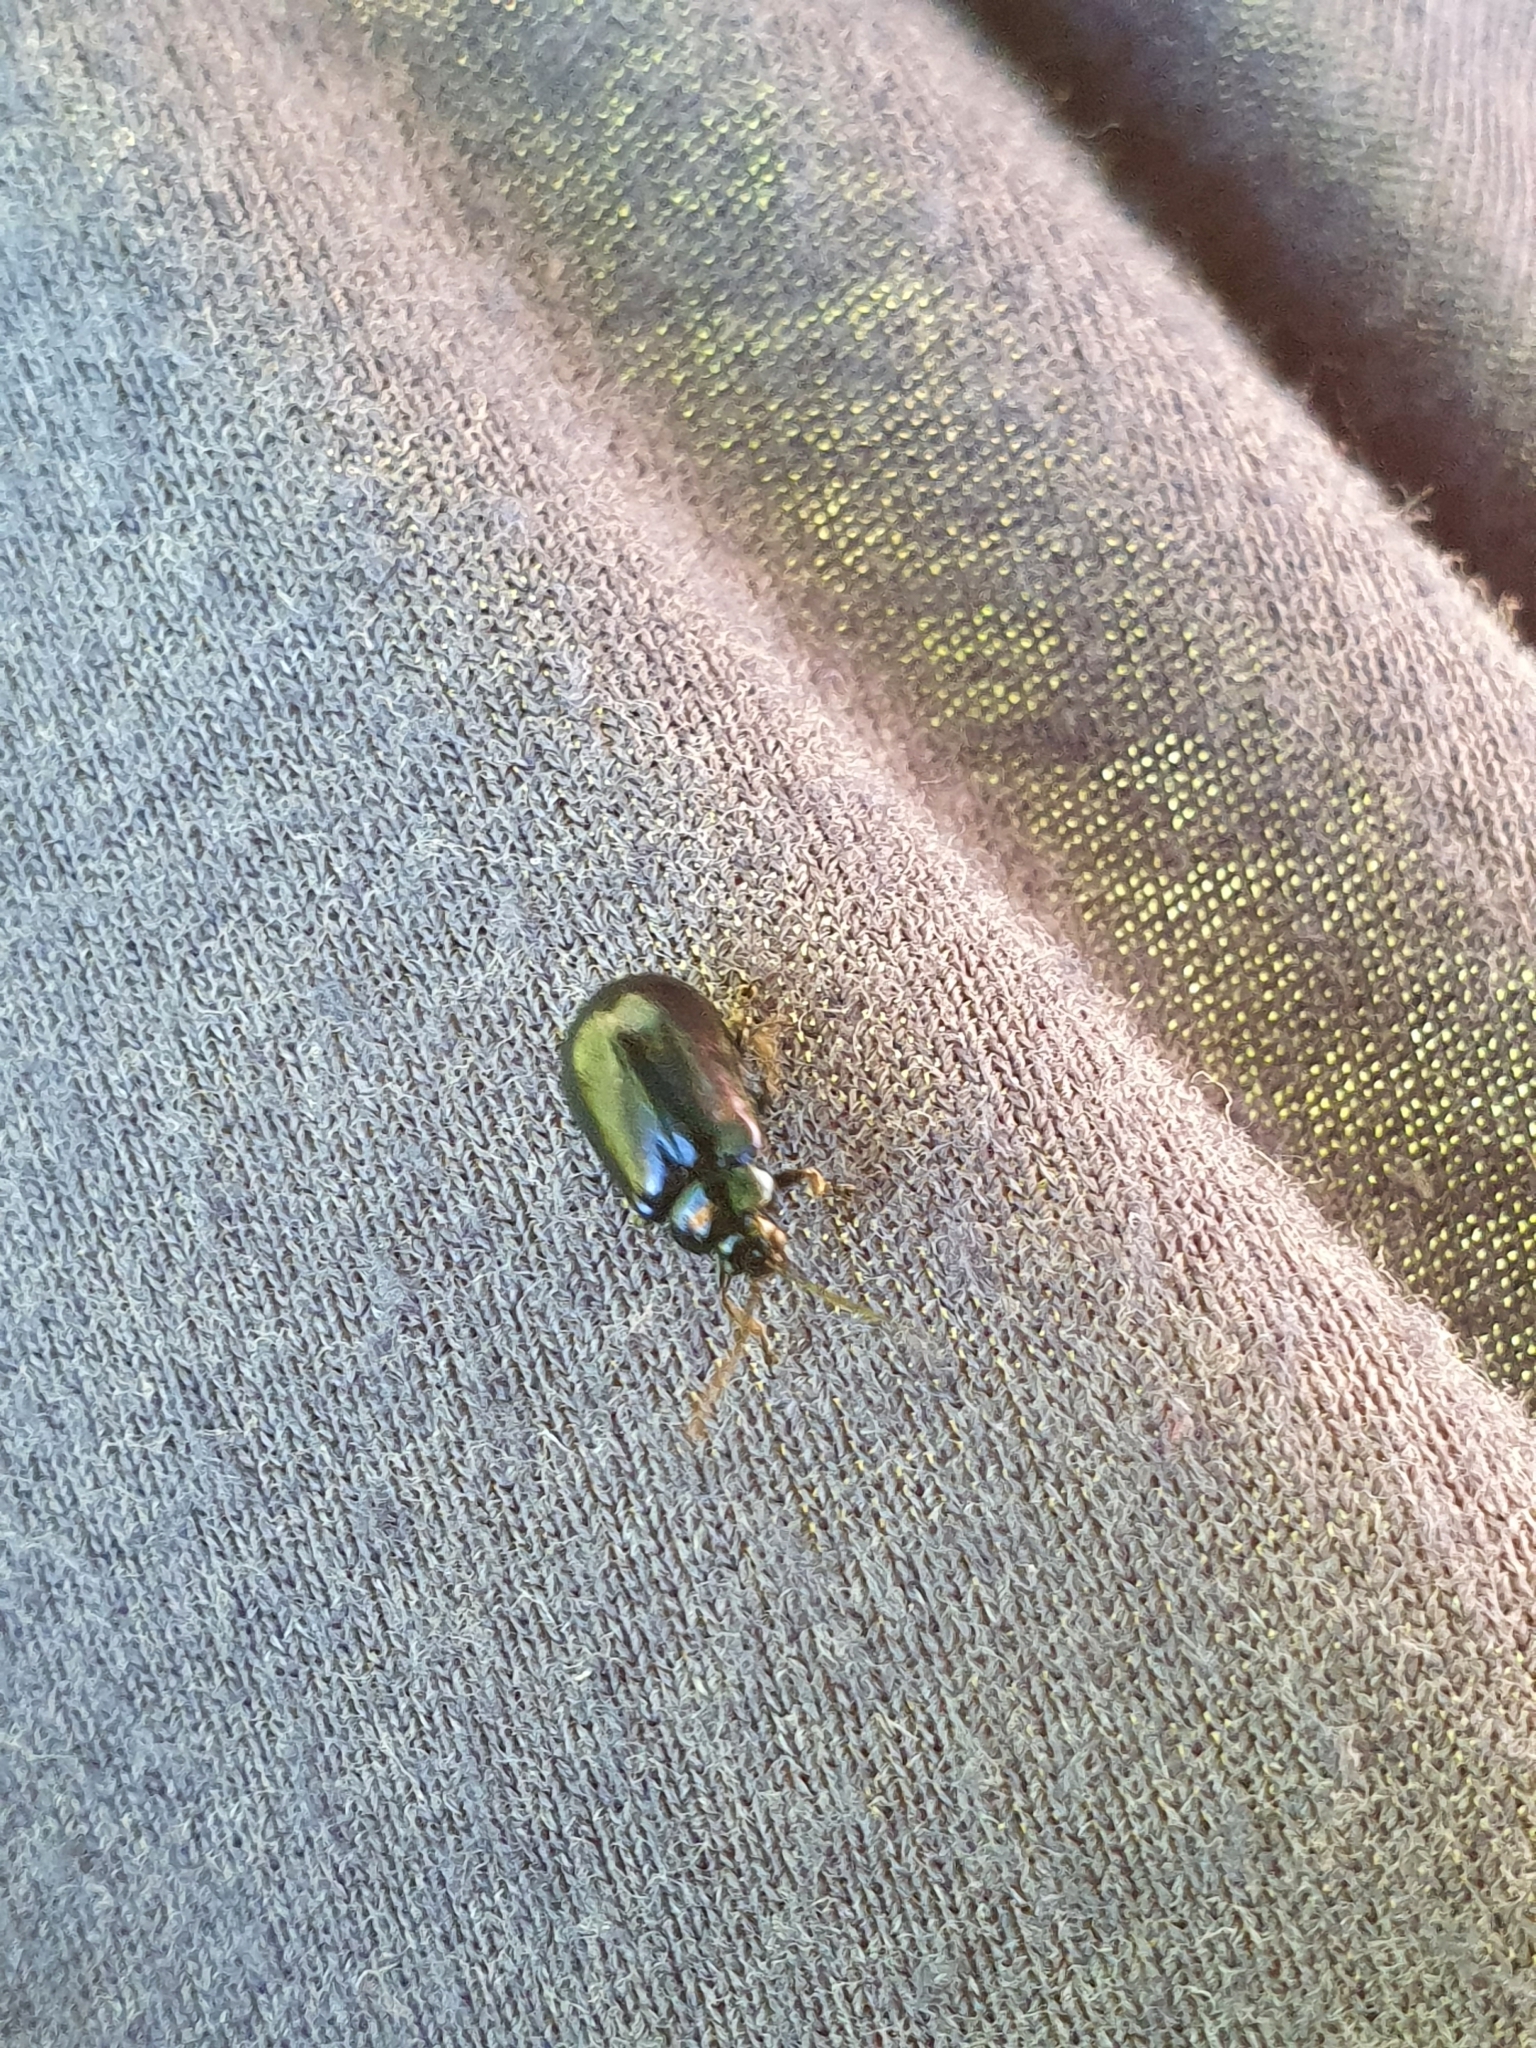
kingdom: Animalia
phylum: Arthropoda
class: Insecta
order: Coleoptera
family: Chrysomelidae
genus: Agelastica
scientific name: Agelastica alni
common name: Alder leaf beetle
